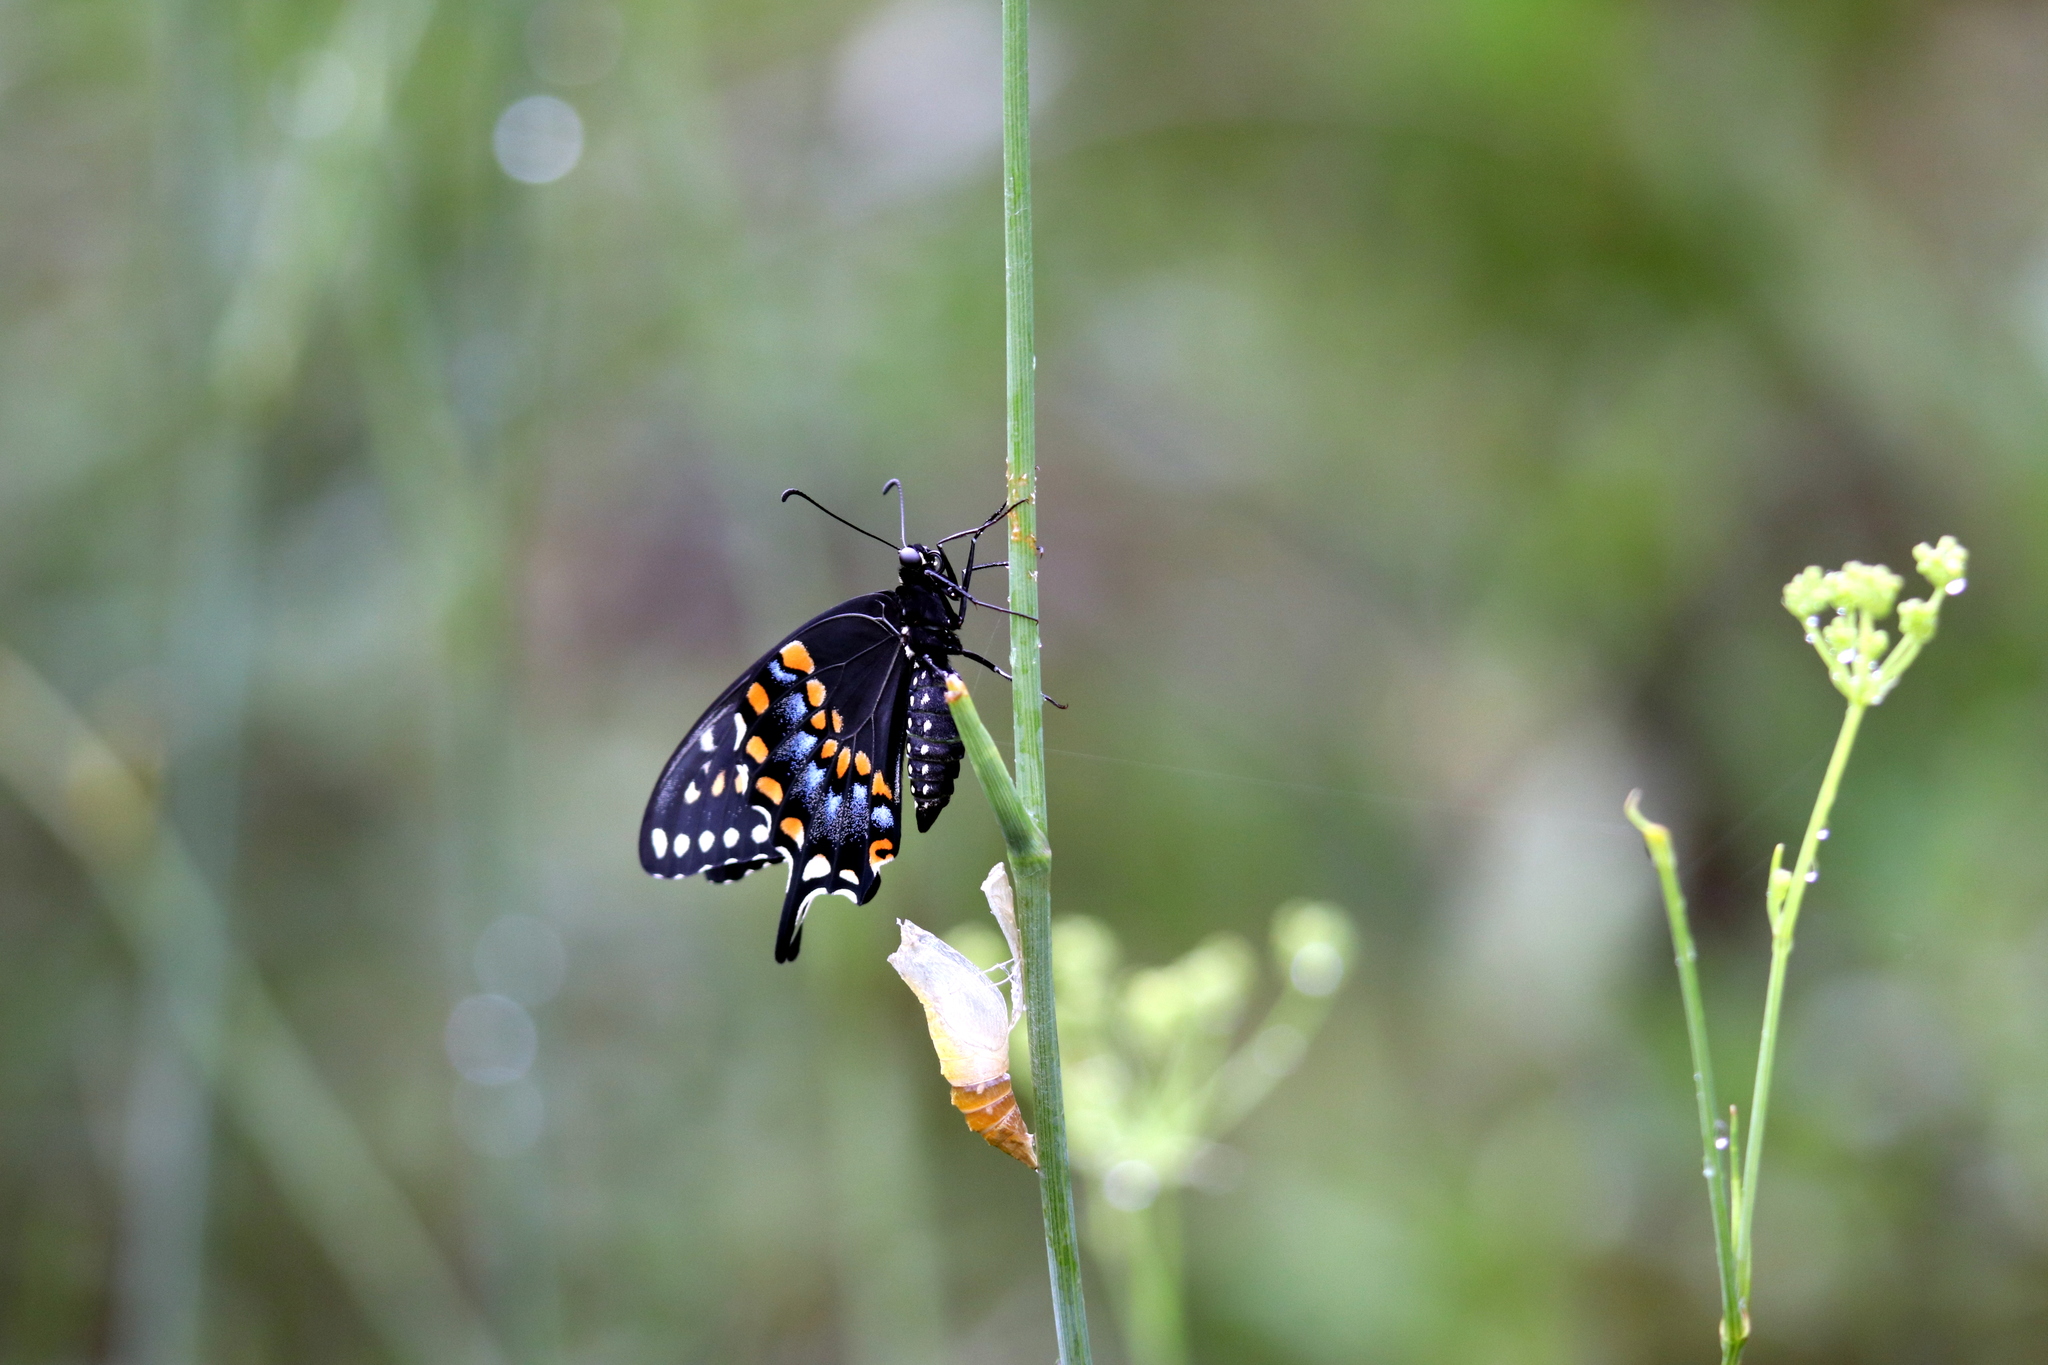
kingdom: Animalia
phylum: Arthropoda
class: Insecta
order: Lepidoptera
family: Papilionidae
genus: Papilio
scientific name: Papilio polyxenes
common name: Black swallowtail
